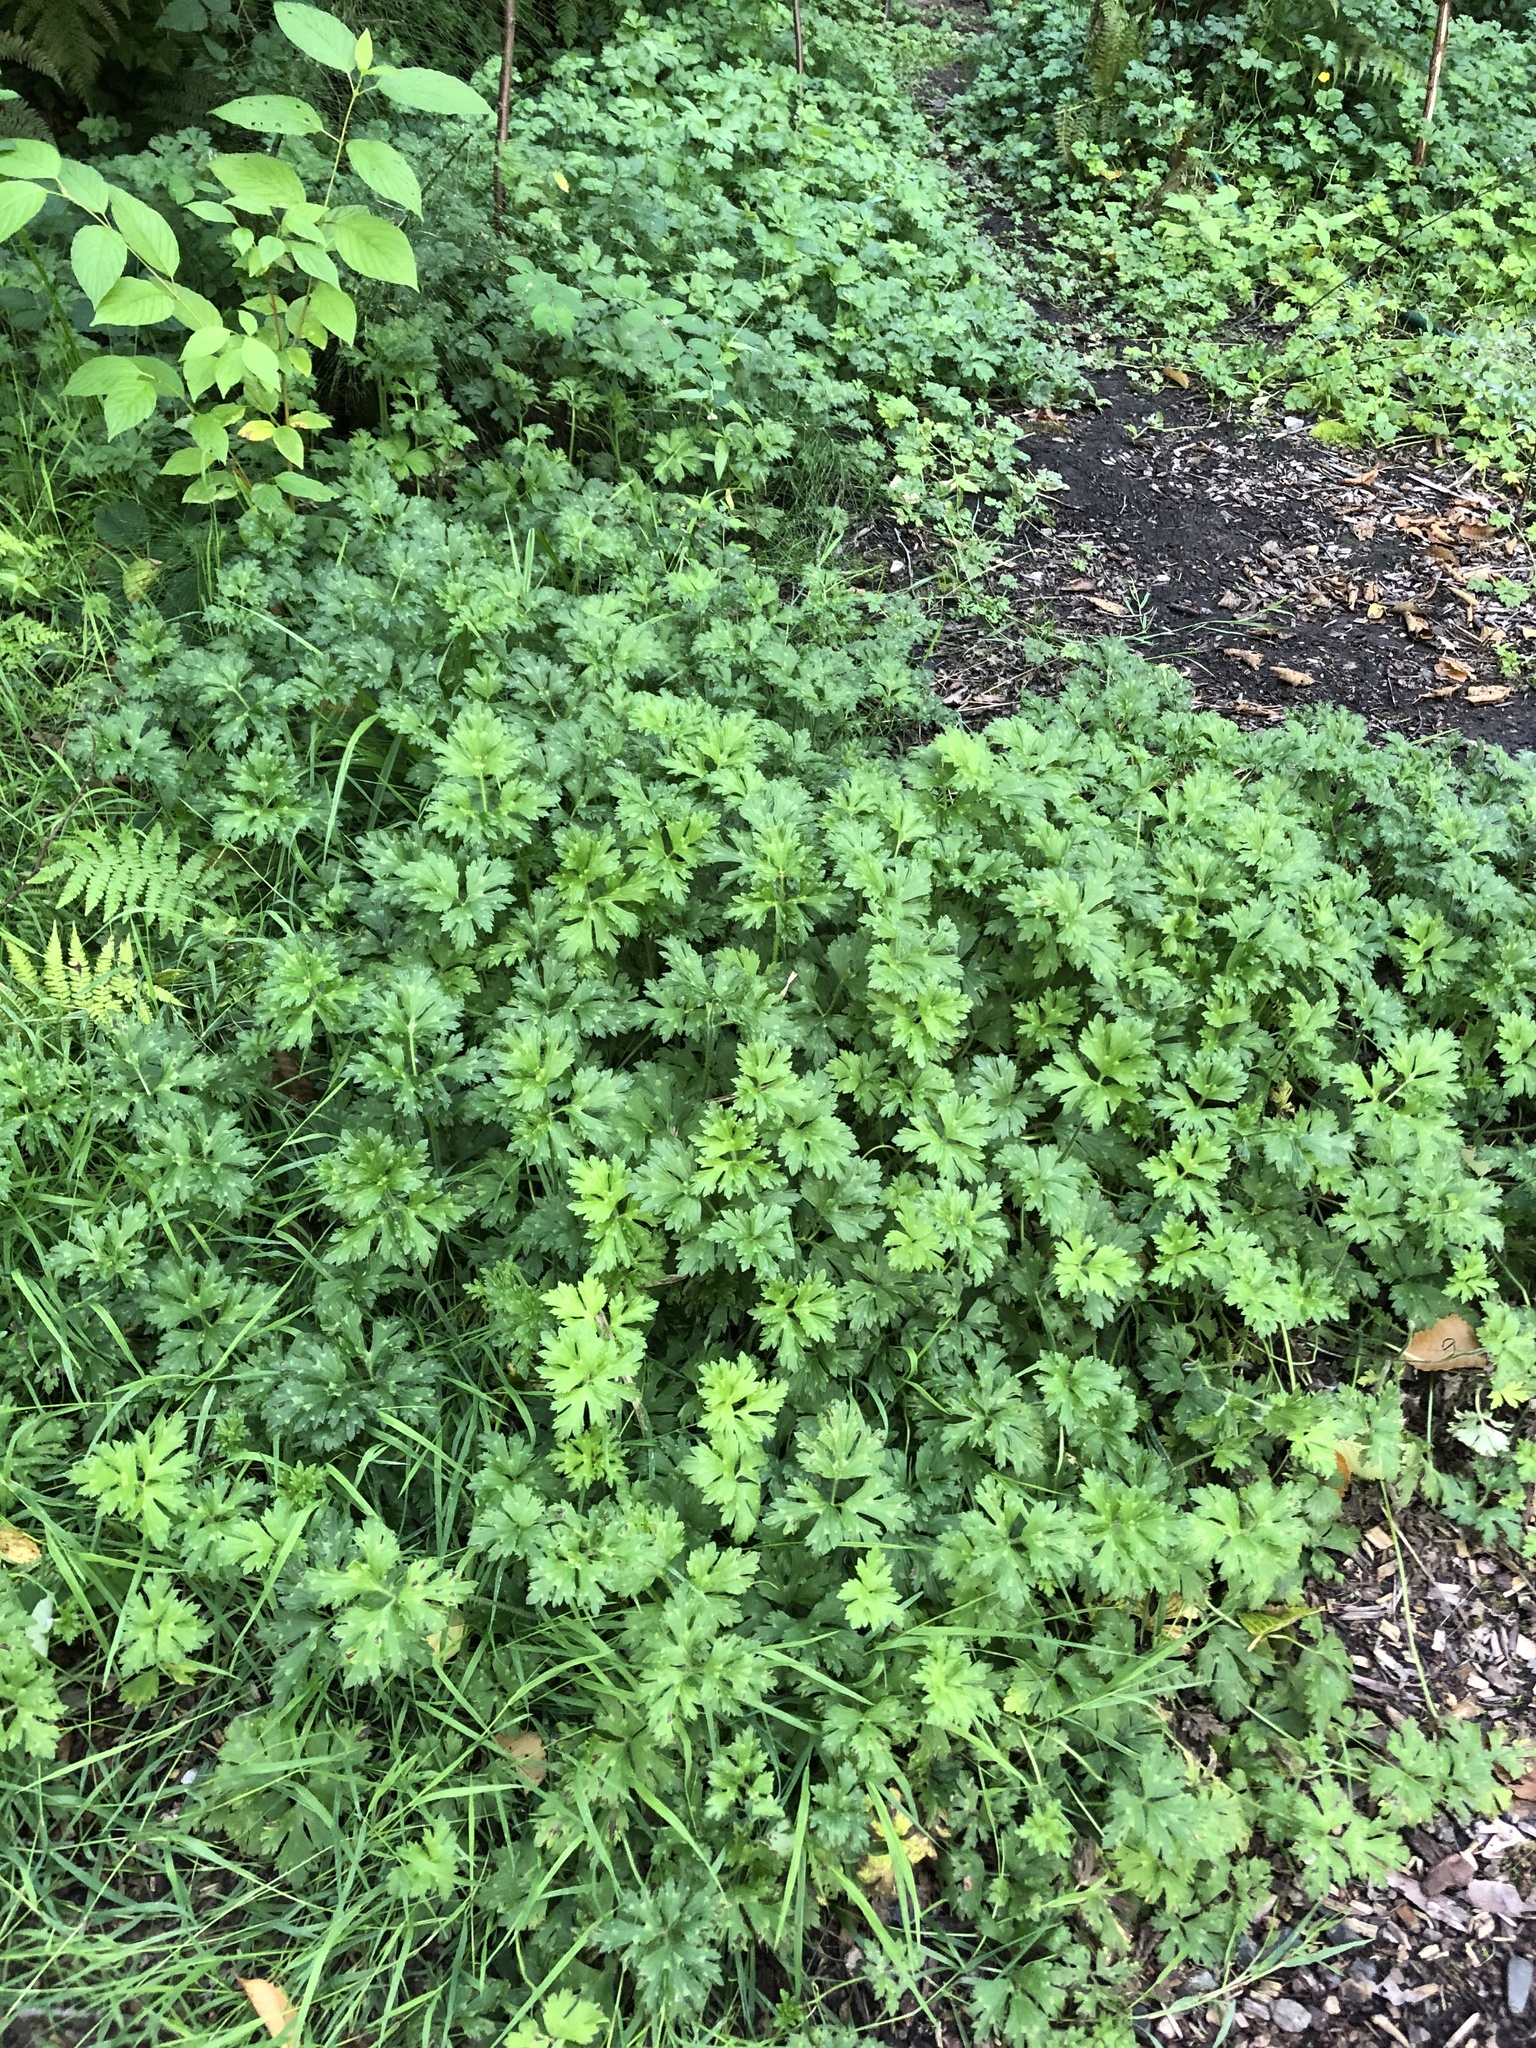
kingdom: Plantae
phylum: Tracheophyta
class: Magnoliopsida
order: Ranunculales
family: Ranunculaceae
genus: Ranunculus
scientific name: Ranunculus repens
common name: Creeping buttercup
